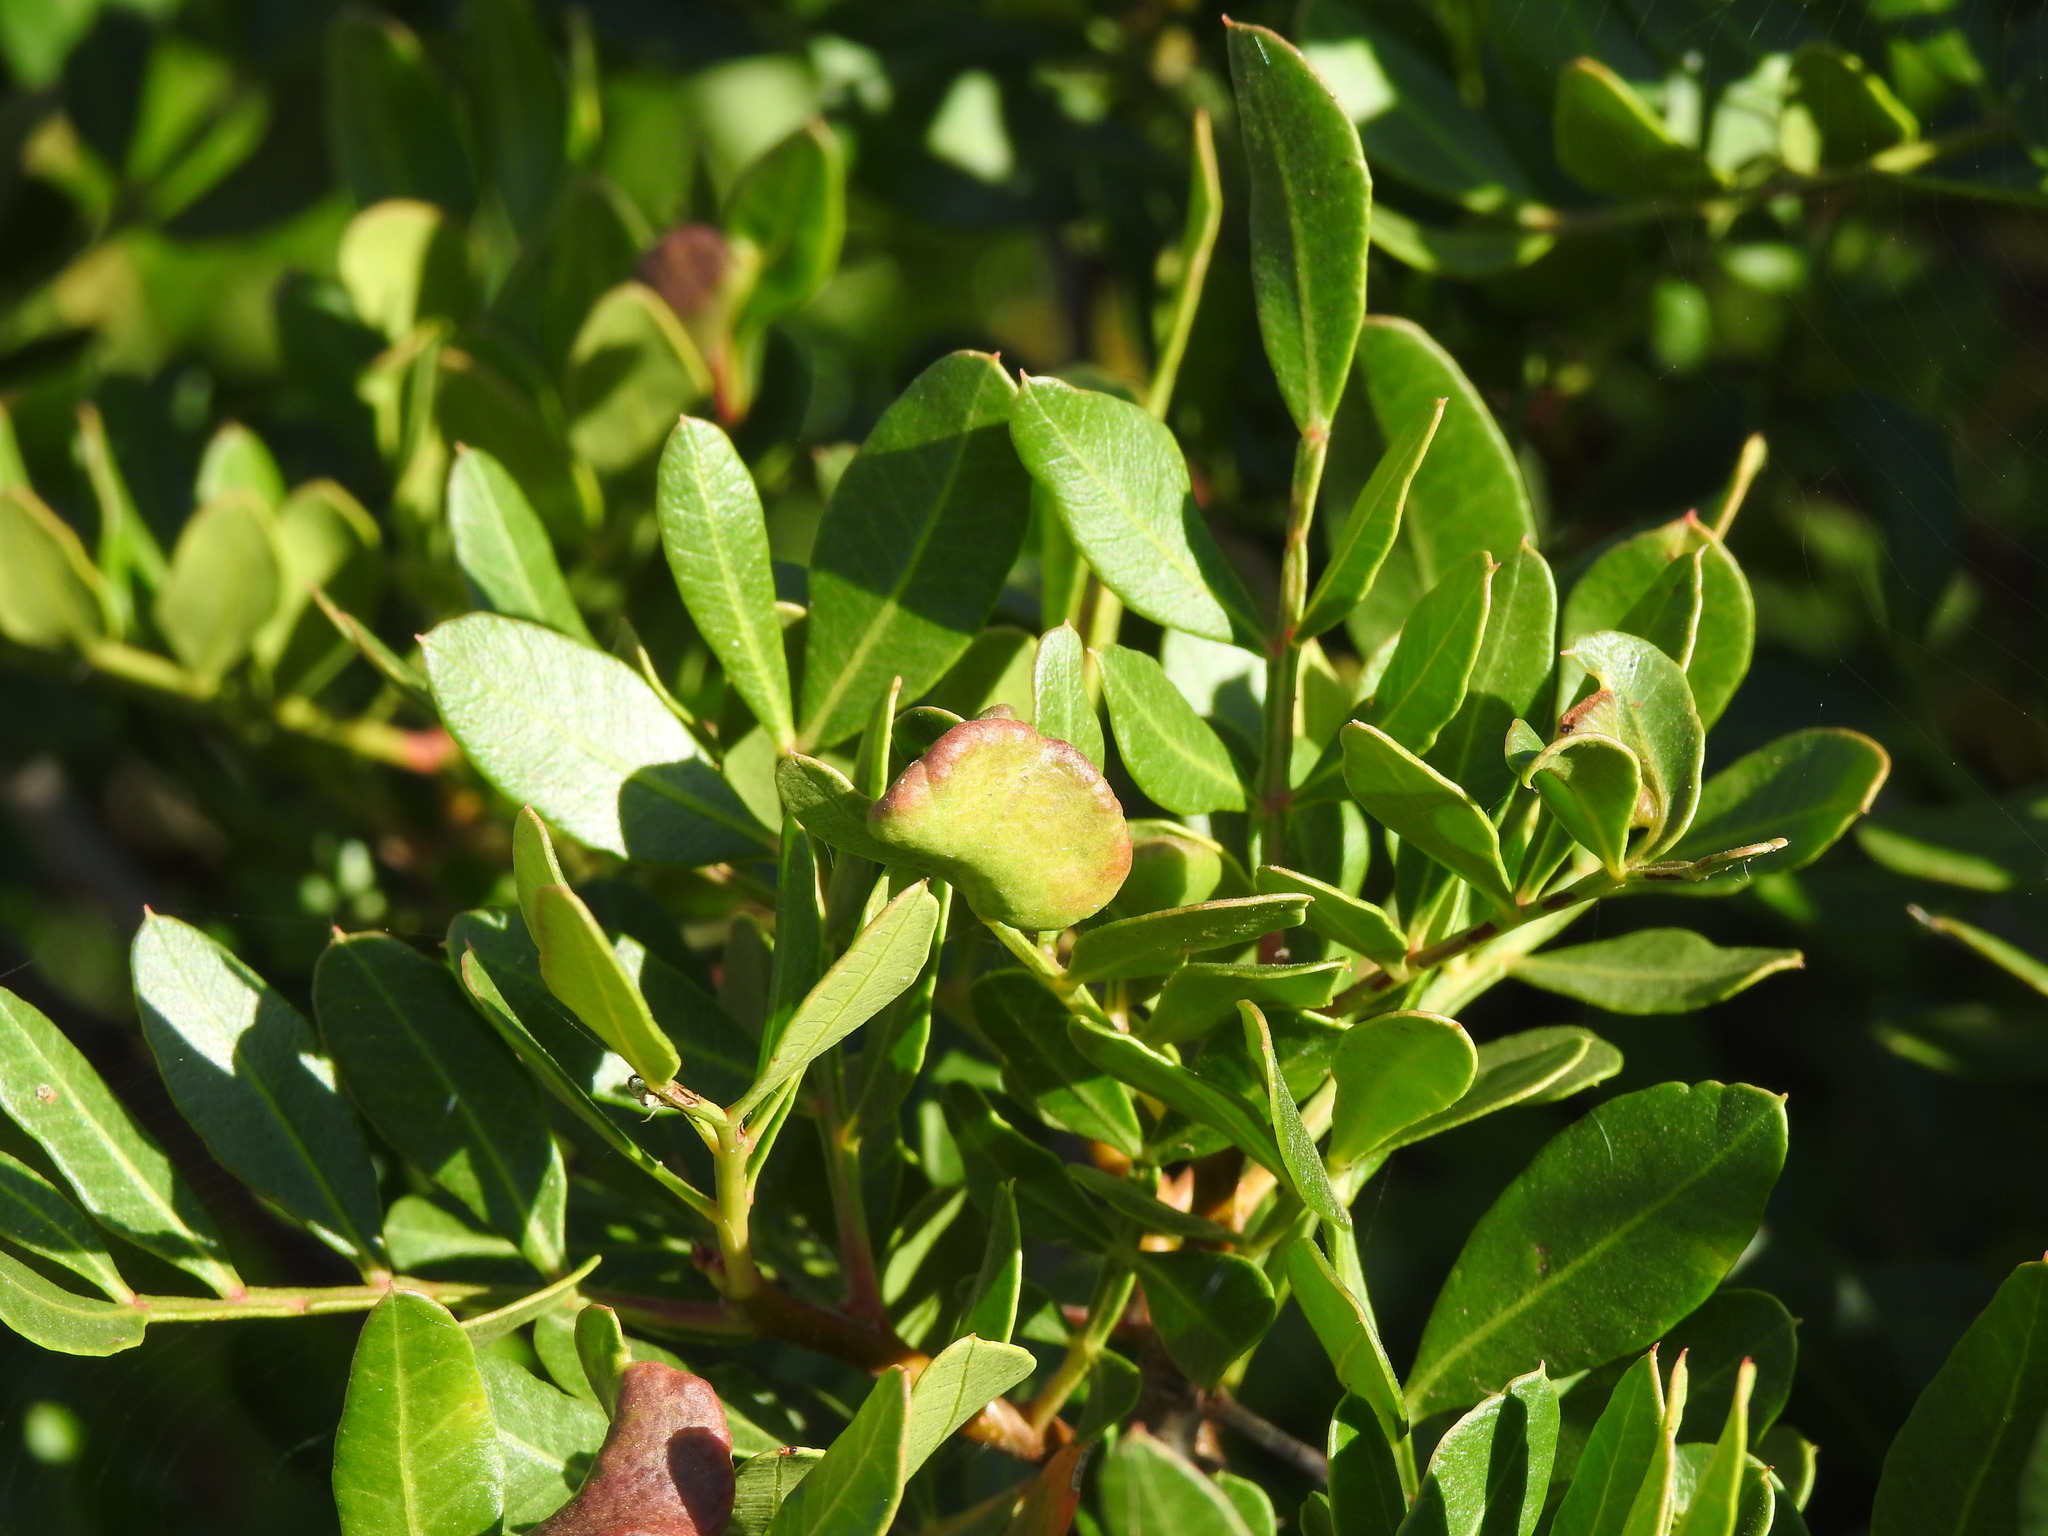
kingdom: Animalia
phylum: Arthropoda
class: Insecta
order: Hemiptera
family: Aphididae
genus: Aploneura
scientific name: Aploneura lentisci
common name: Mealy grass root aphid
